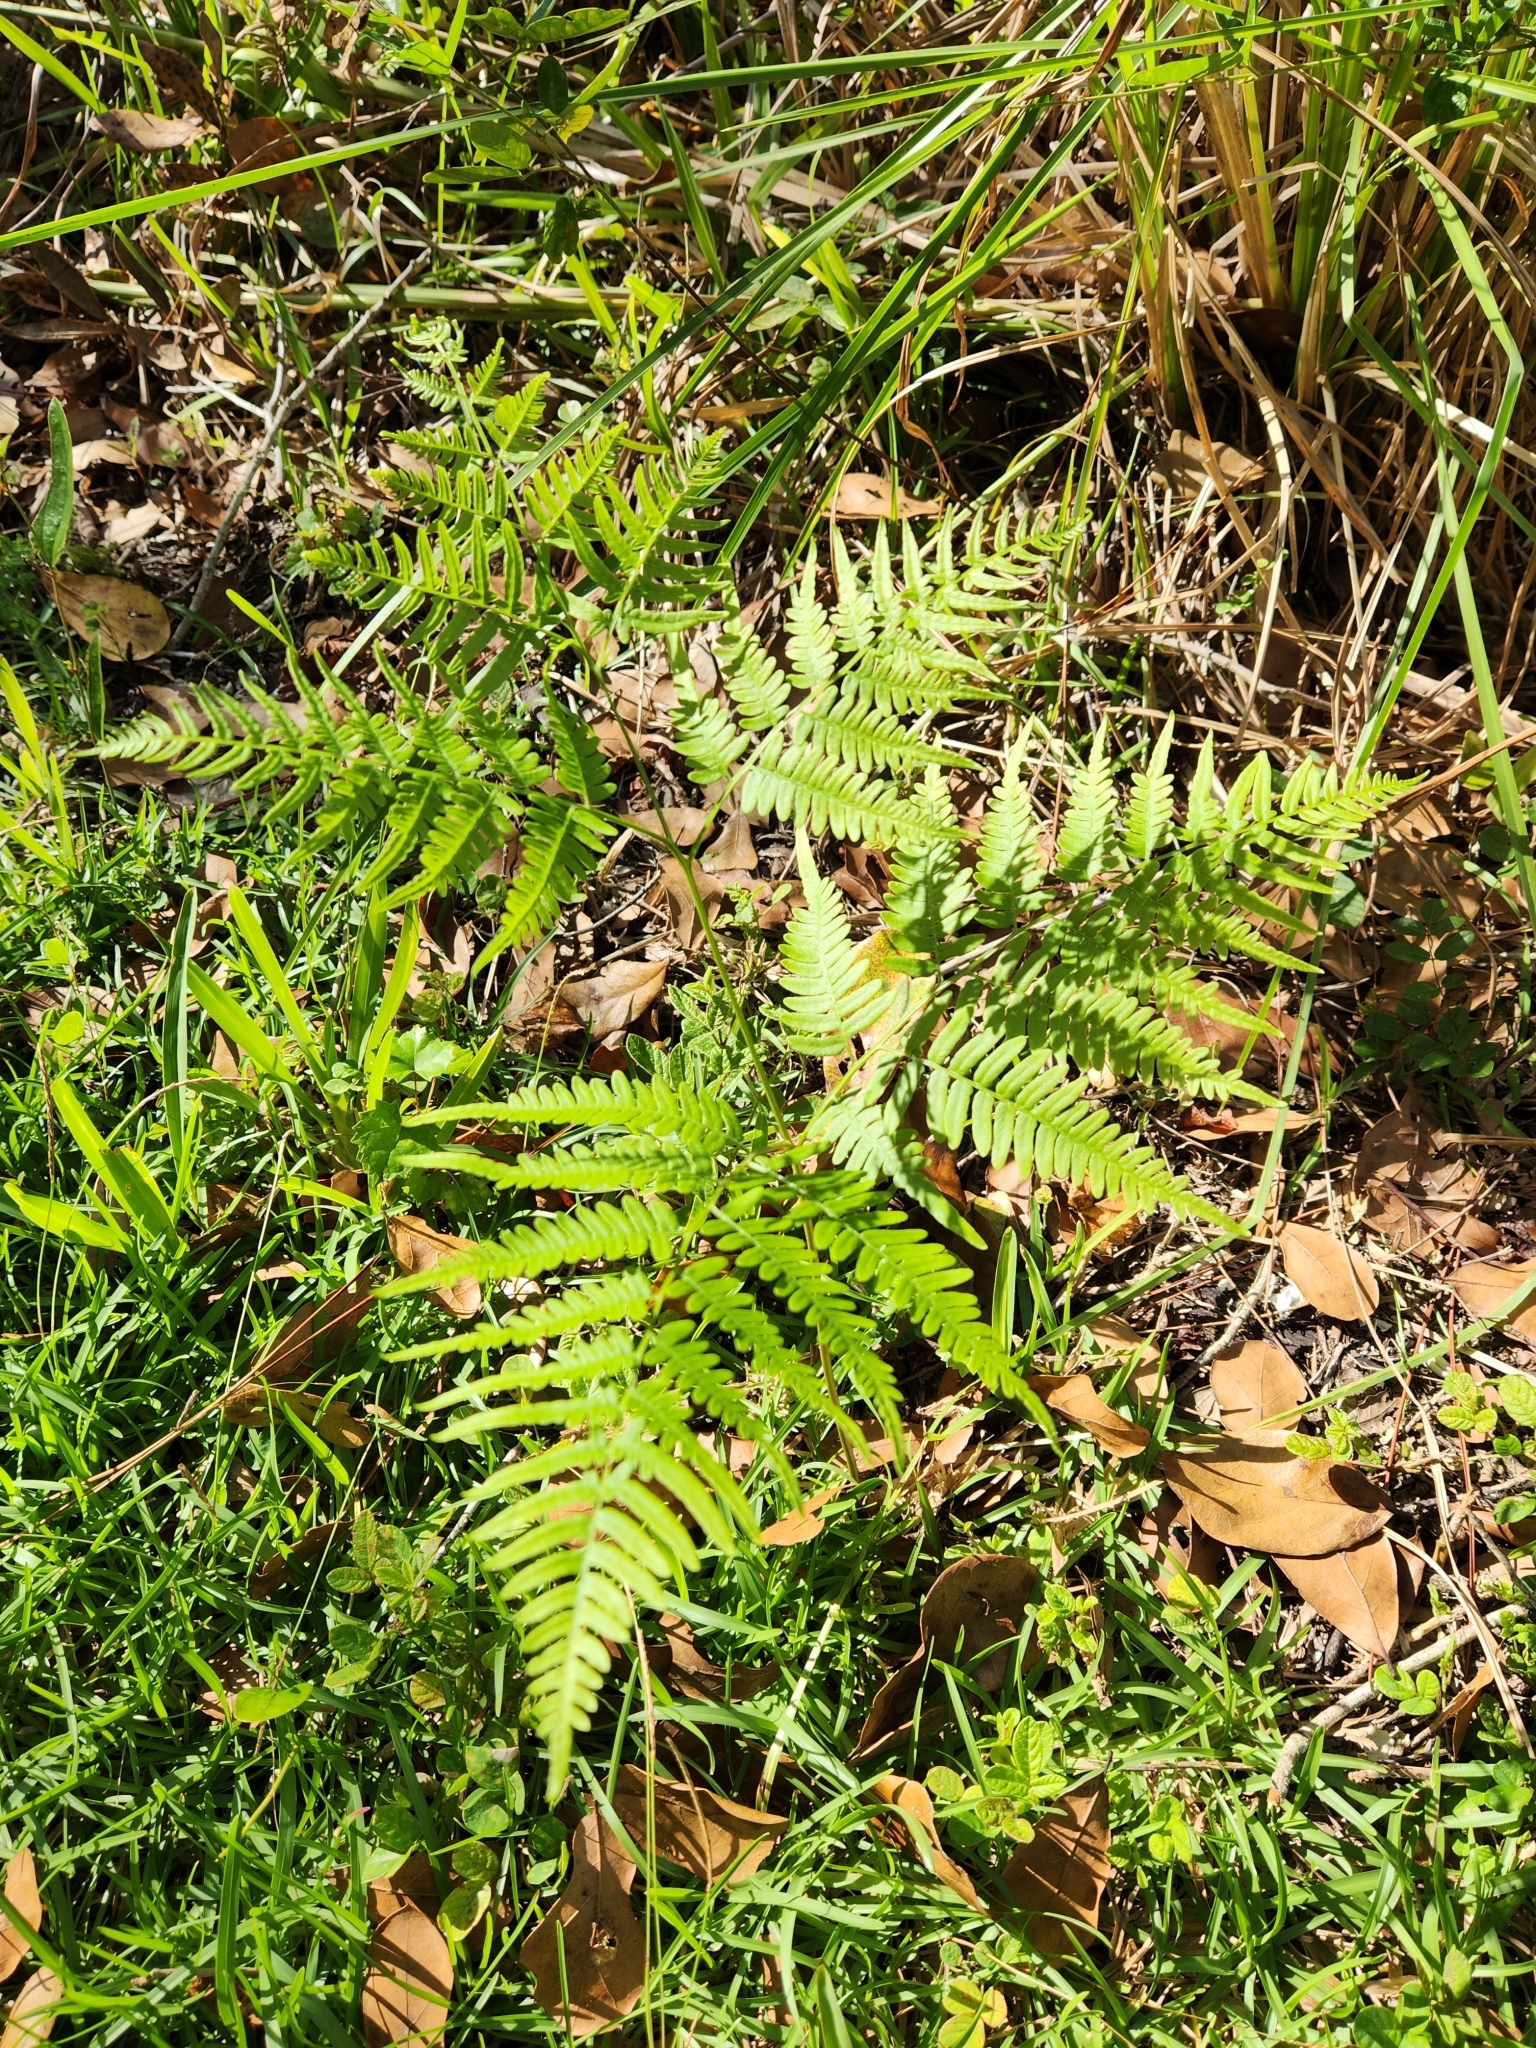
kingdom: Plantae
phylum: Tracheophyta
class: Polypodiopsida
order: Polypodiales
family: Dennstaedtiaceae
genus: Pteridium
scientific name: Pteridium
